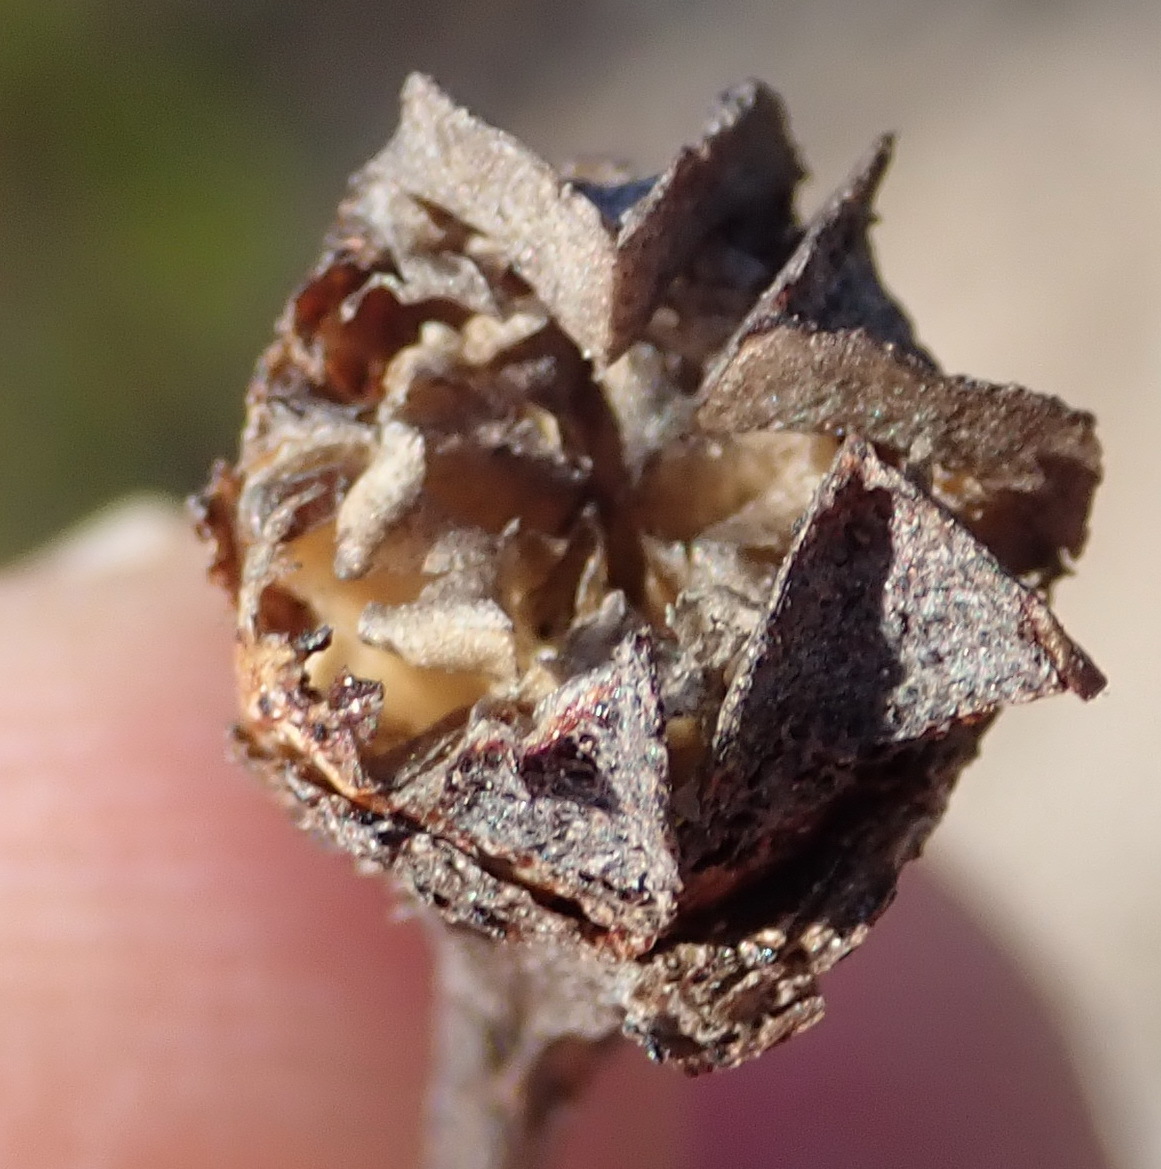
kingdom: Plantae
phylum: Tracheophyta
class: Magnoliopsida
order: Caryophyllales
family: Aizoaceae
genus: Ruschia
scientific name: Ruschia duthiae
